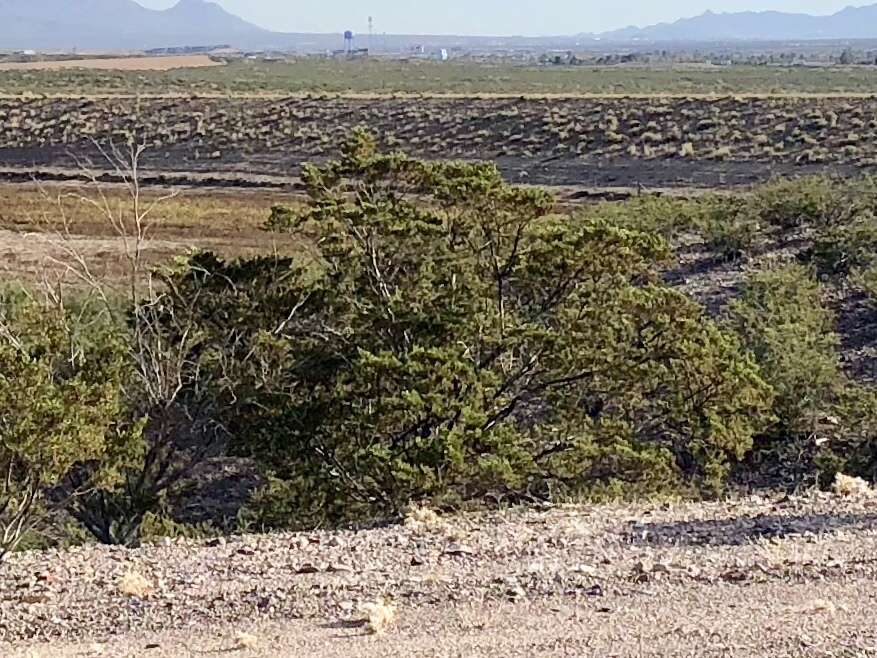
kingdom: Plantae
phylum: Tracheophyta
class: Magnoliopsida
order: Zygophyllales
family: Zygophyllaceae
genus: Larrea
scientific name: Larrea tridentata
